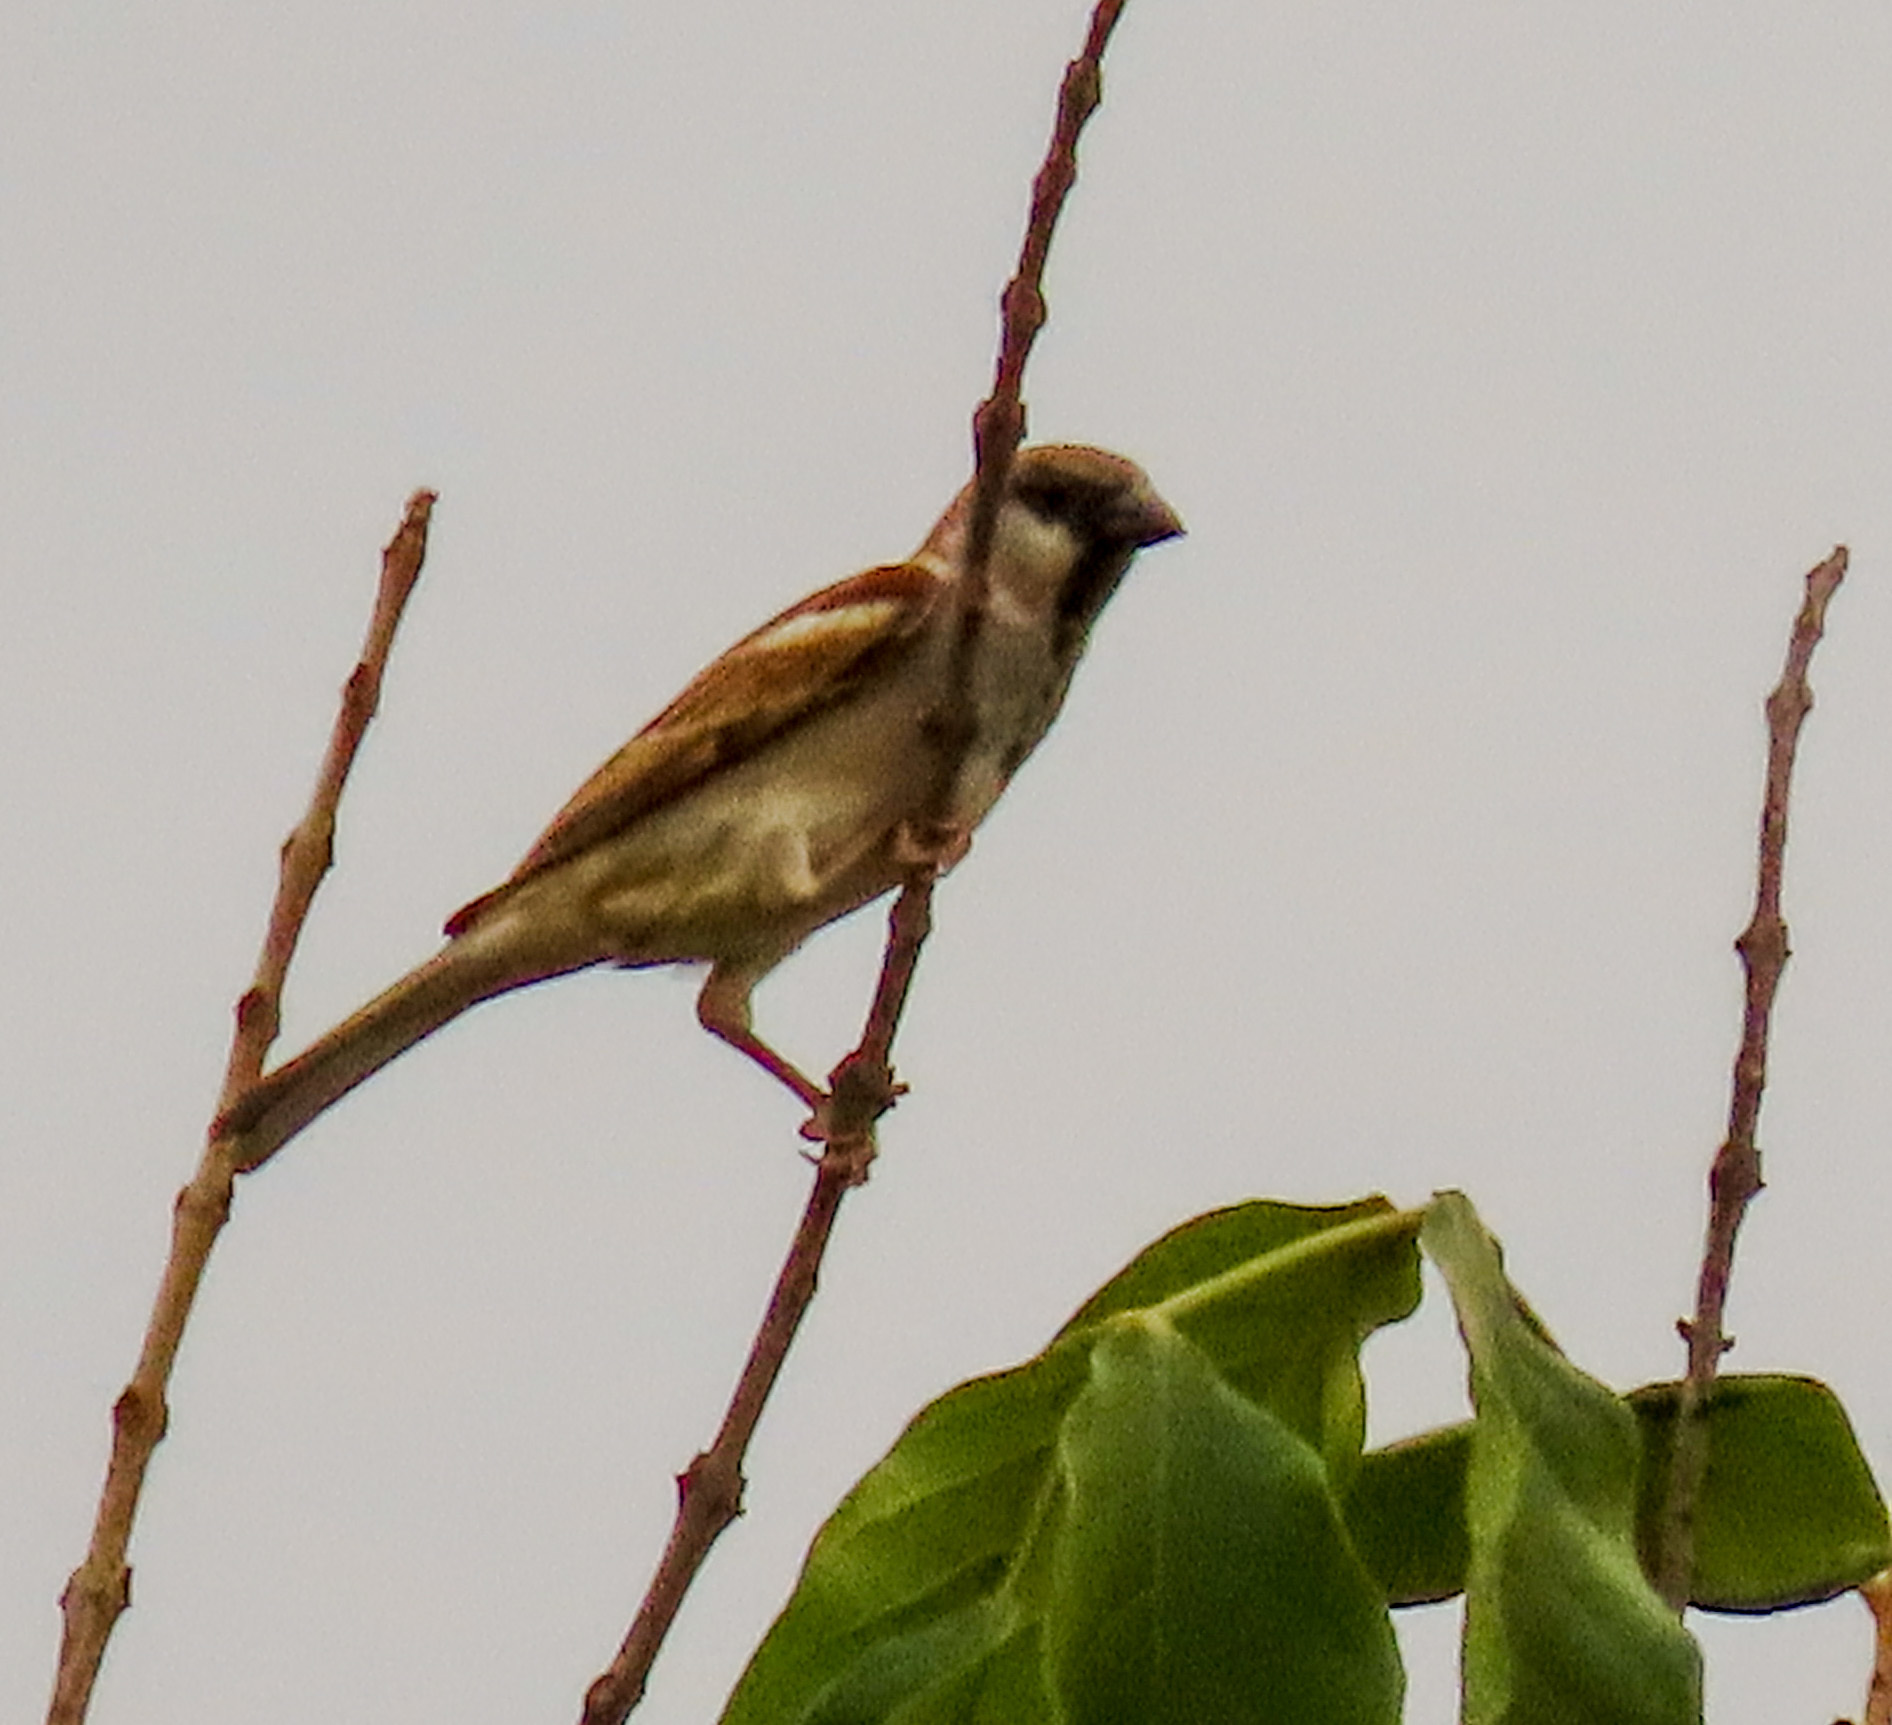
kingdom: Animalia
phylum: Chordata
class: Aves
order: Passeriformes
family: Passeridae
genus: Passer
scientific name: Passer domesticus
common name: House sparrow
